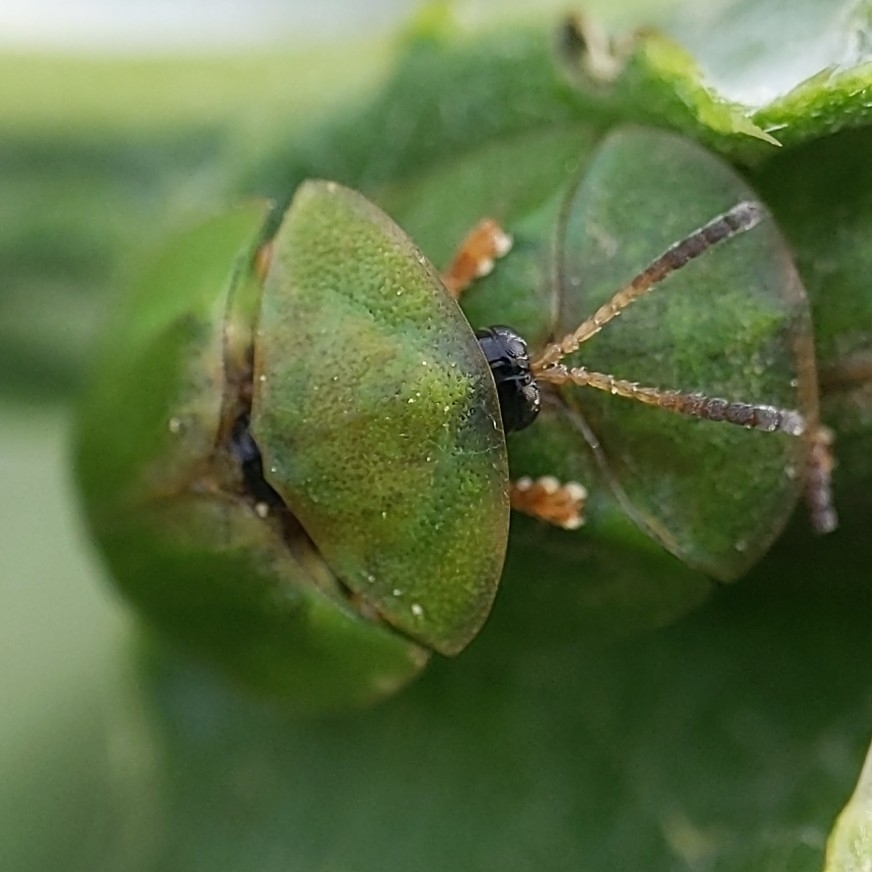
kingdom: Animalia
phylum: Arthropoda
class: Insecta
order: Coleoptera
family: Chrysomelidae
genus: Cassida
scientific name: Cassida rubiginosa
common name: Thistle tortoise beetle
